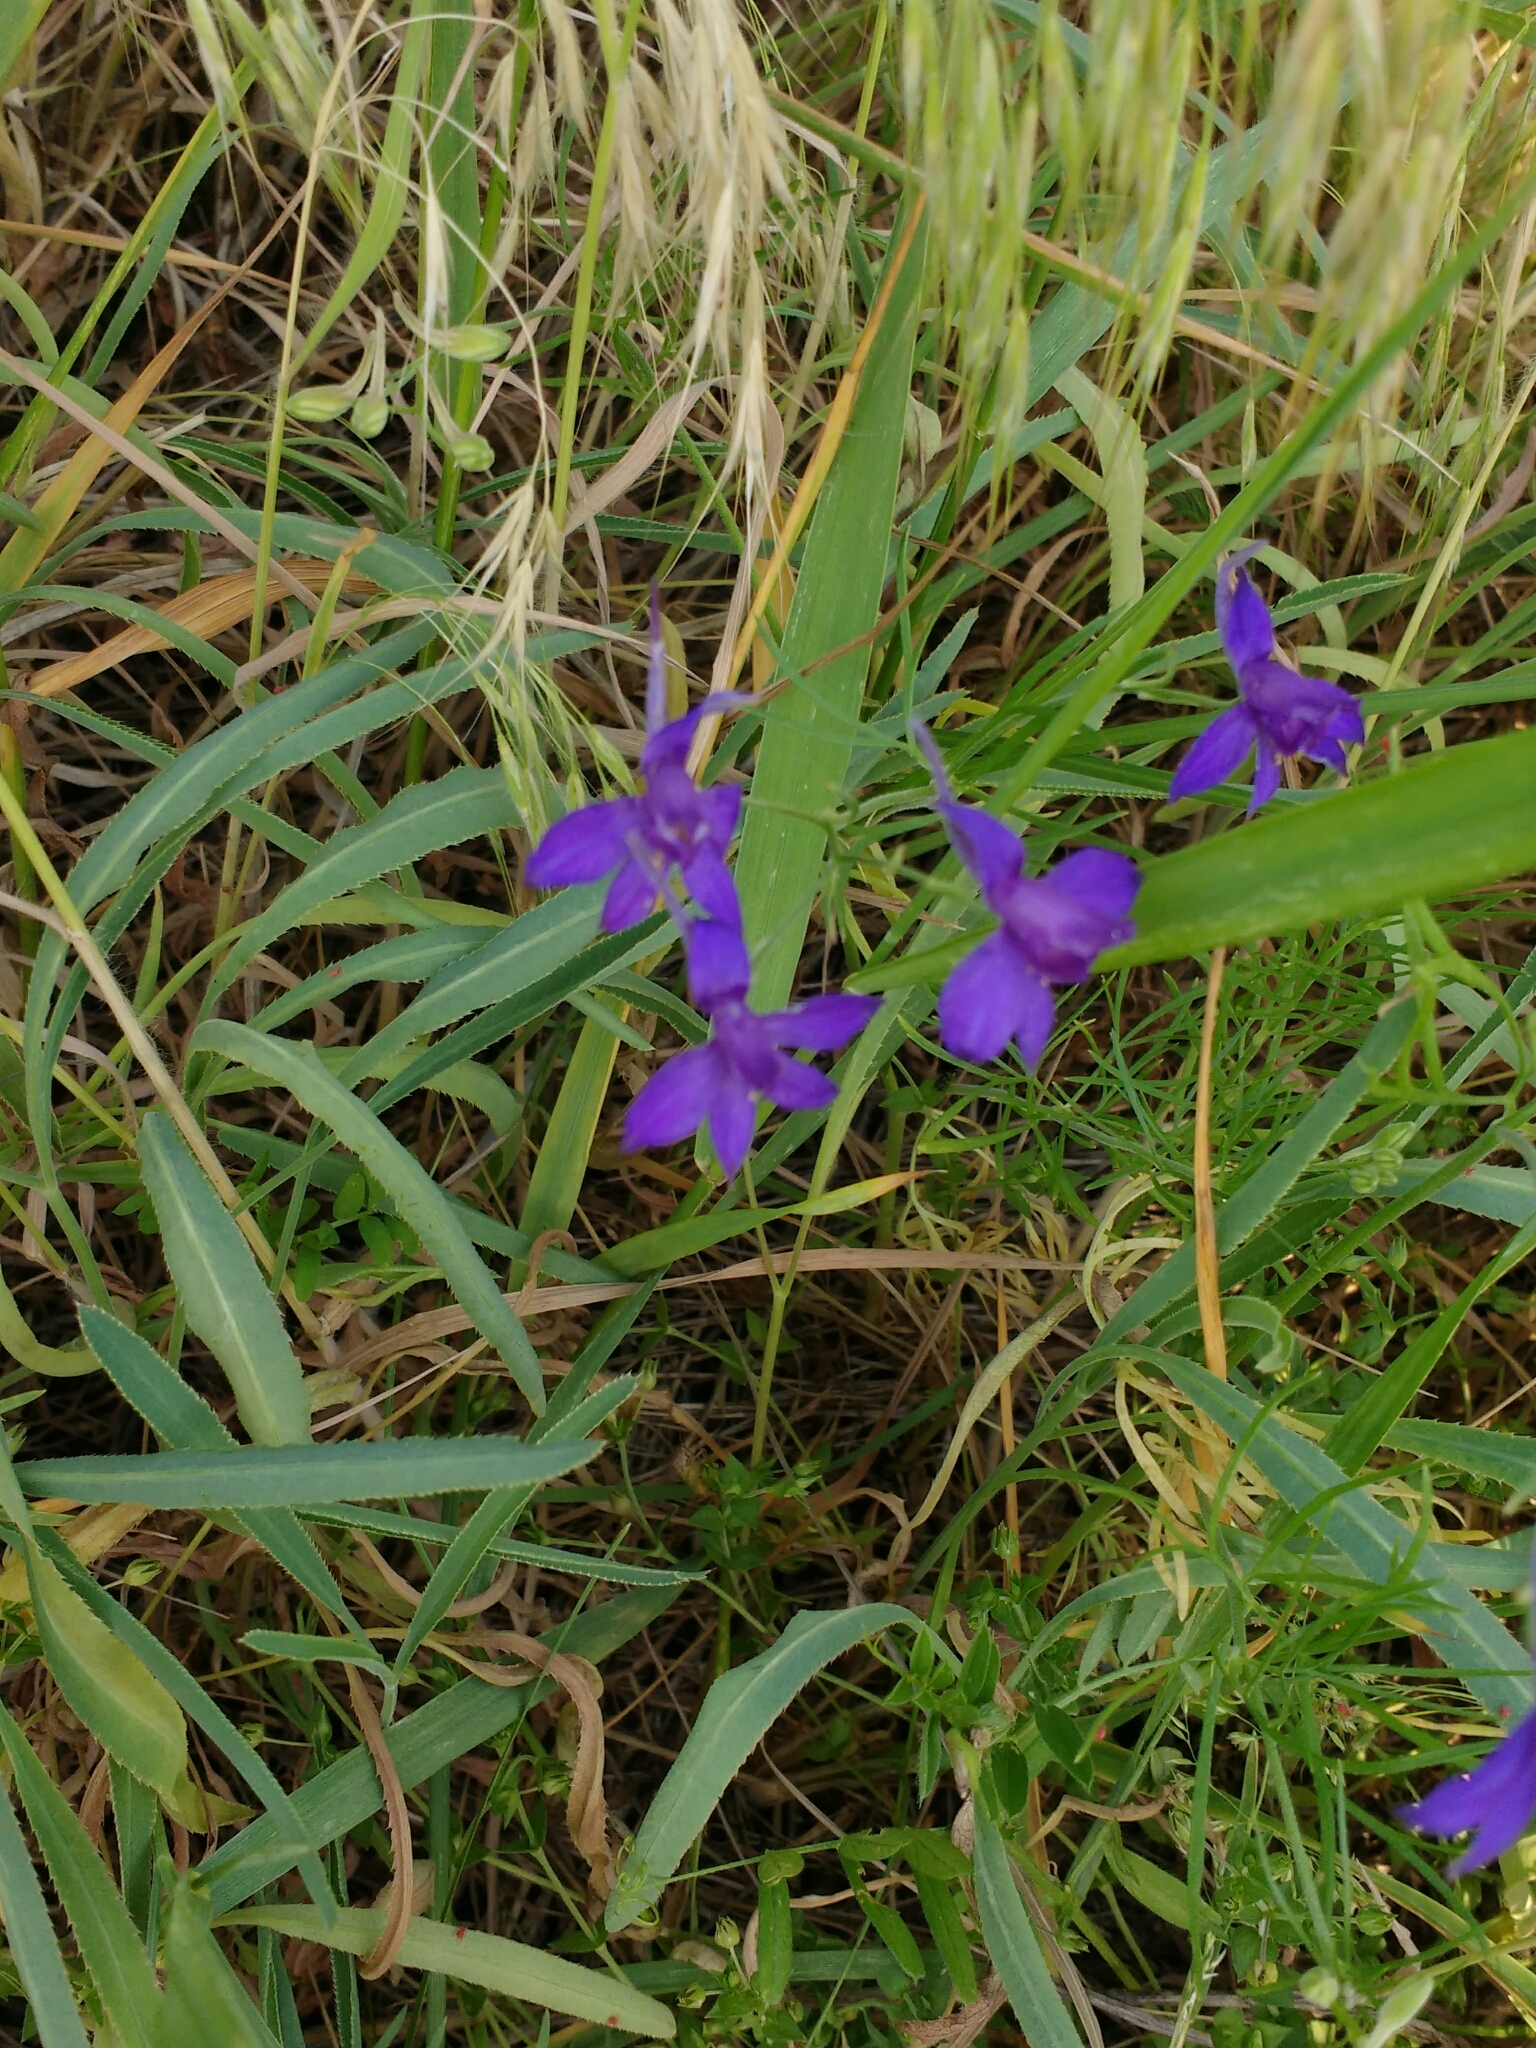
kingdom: Plantae
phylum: Tracheophyta
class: Magnoliopsida
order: Ranunculales
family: Ranunculaceae
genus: Delphinium
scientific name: Delphinium consolida
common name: Branching larkspur
